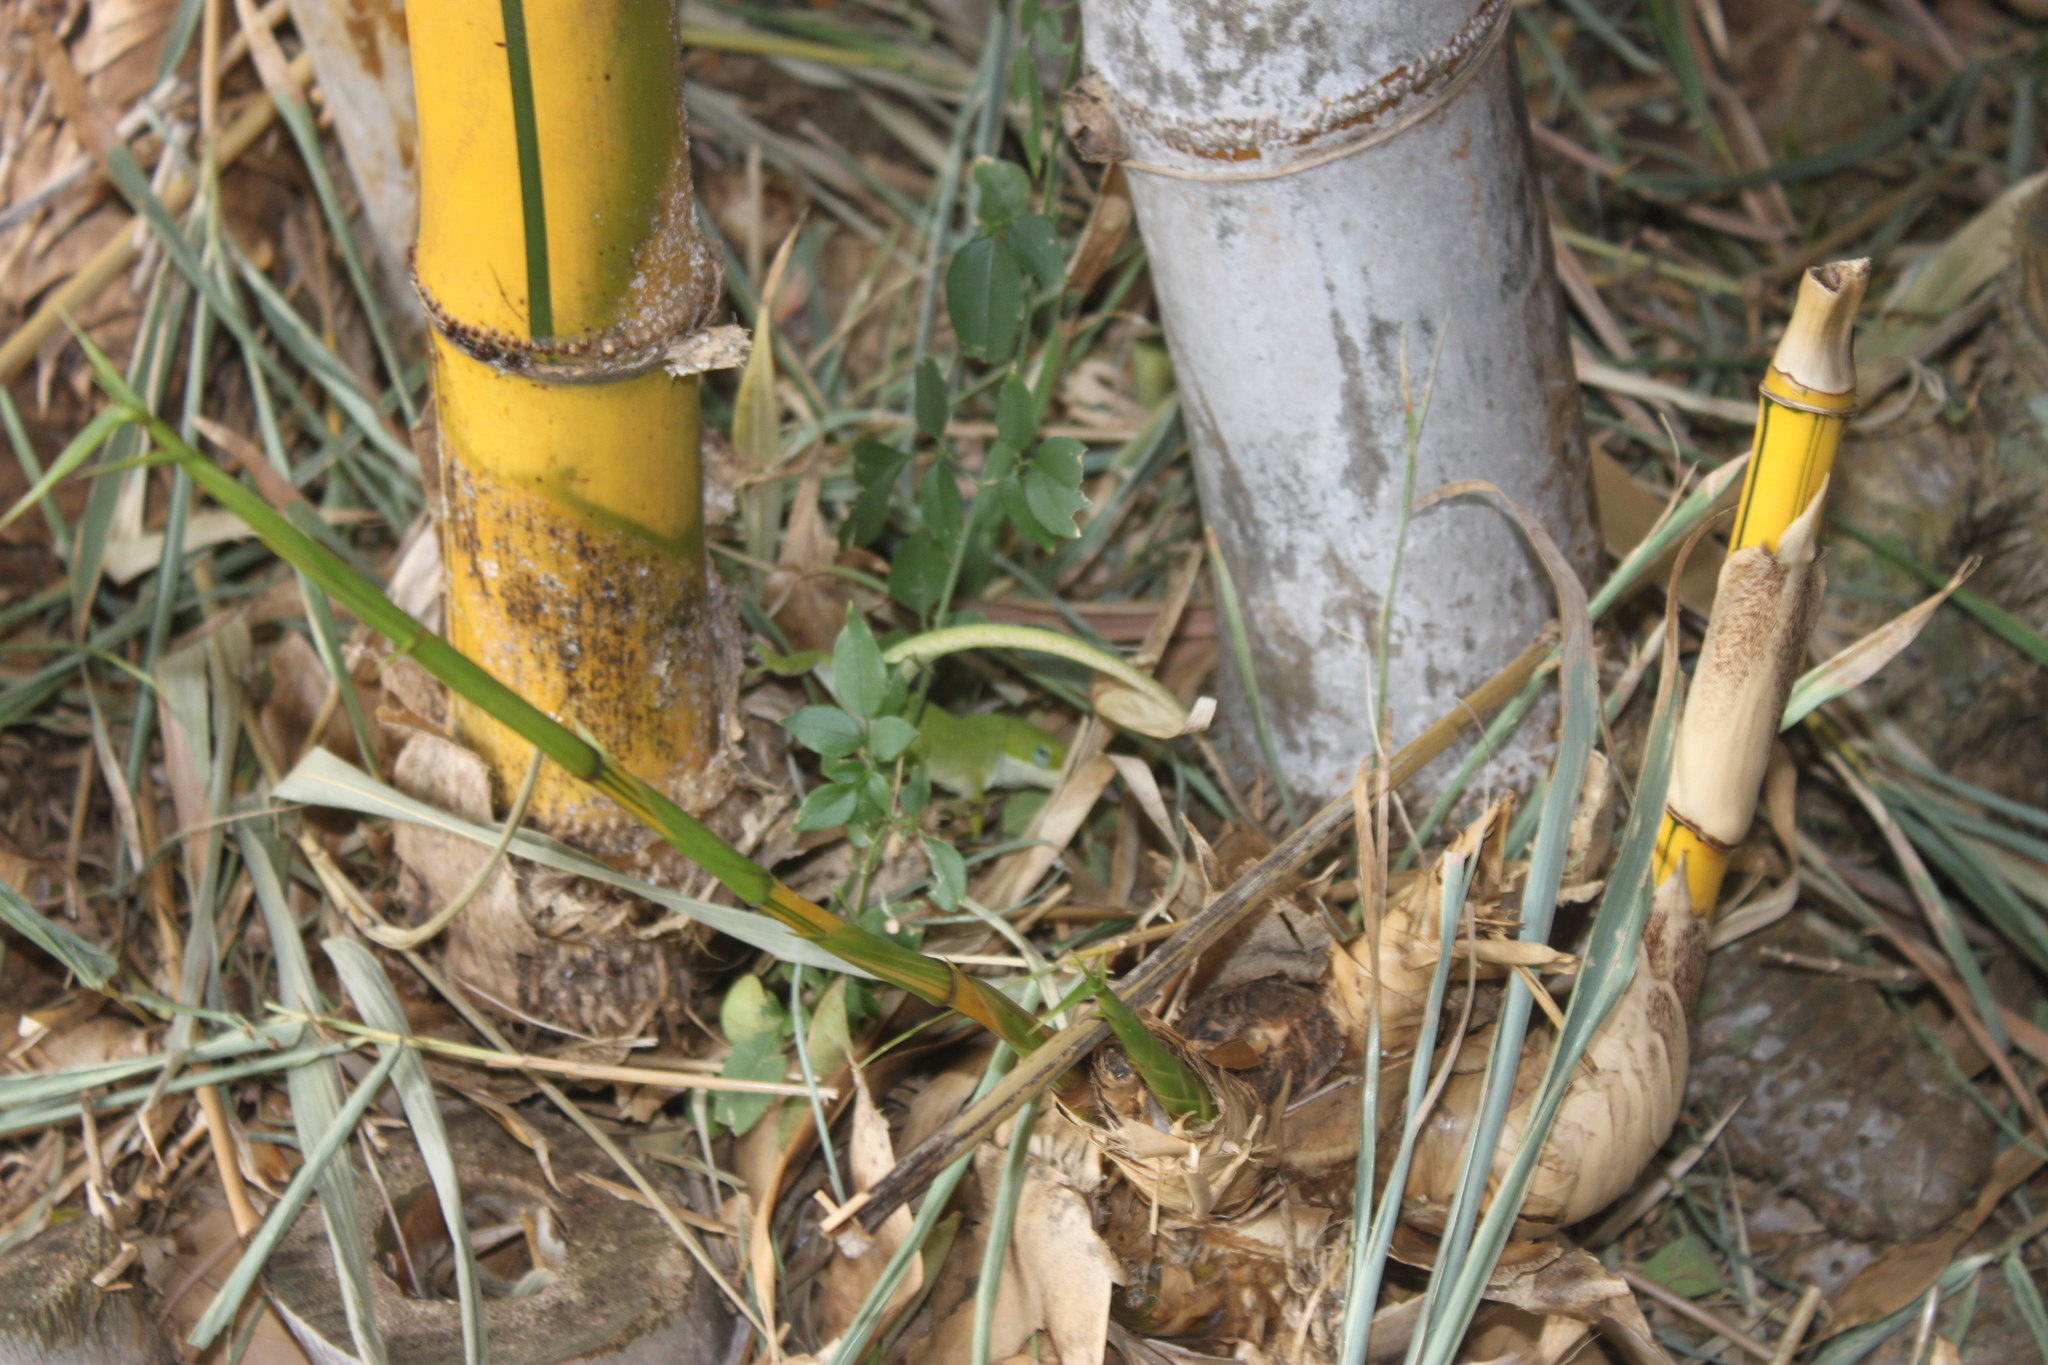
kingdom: Animalia
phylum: Chordata
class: Squamata
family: Dactyloidae
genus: Anolis
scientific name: Anolis carolinensis
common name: Green anole
